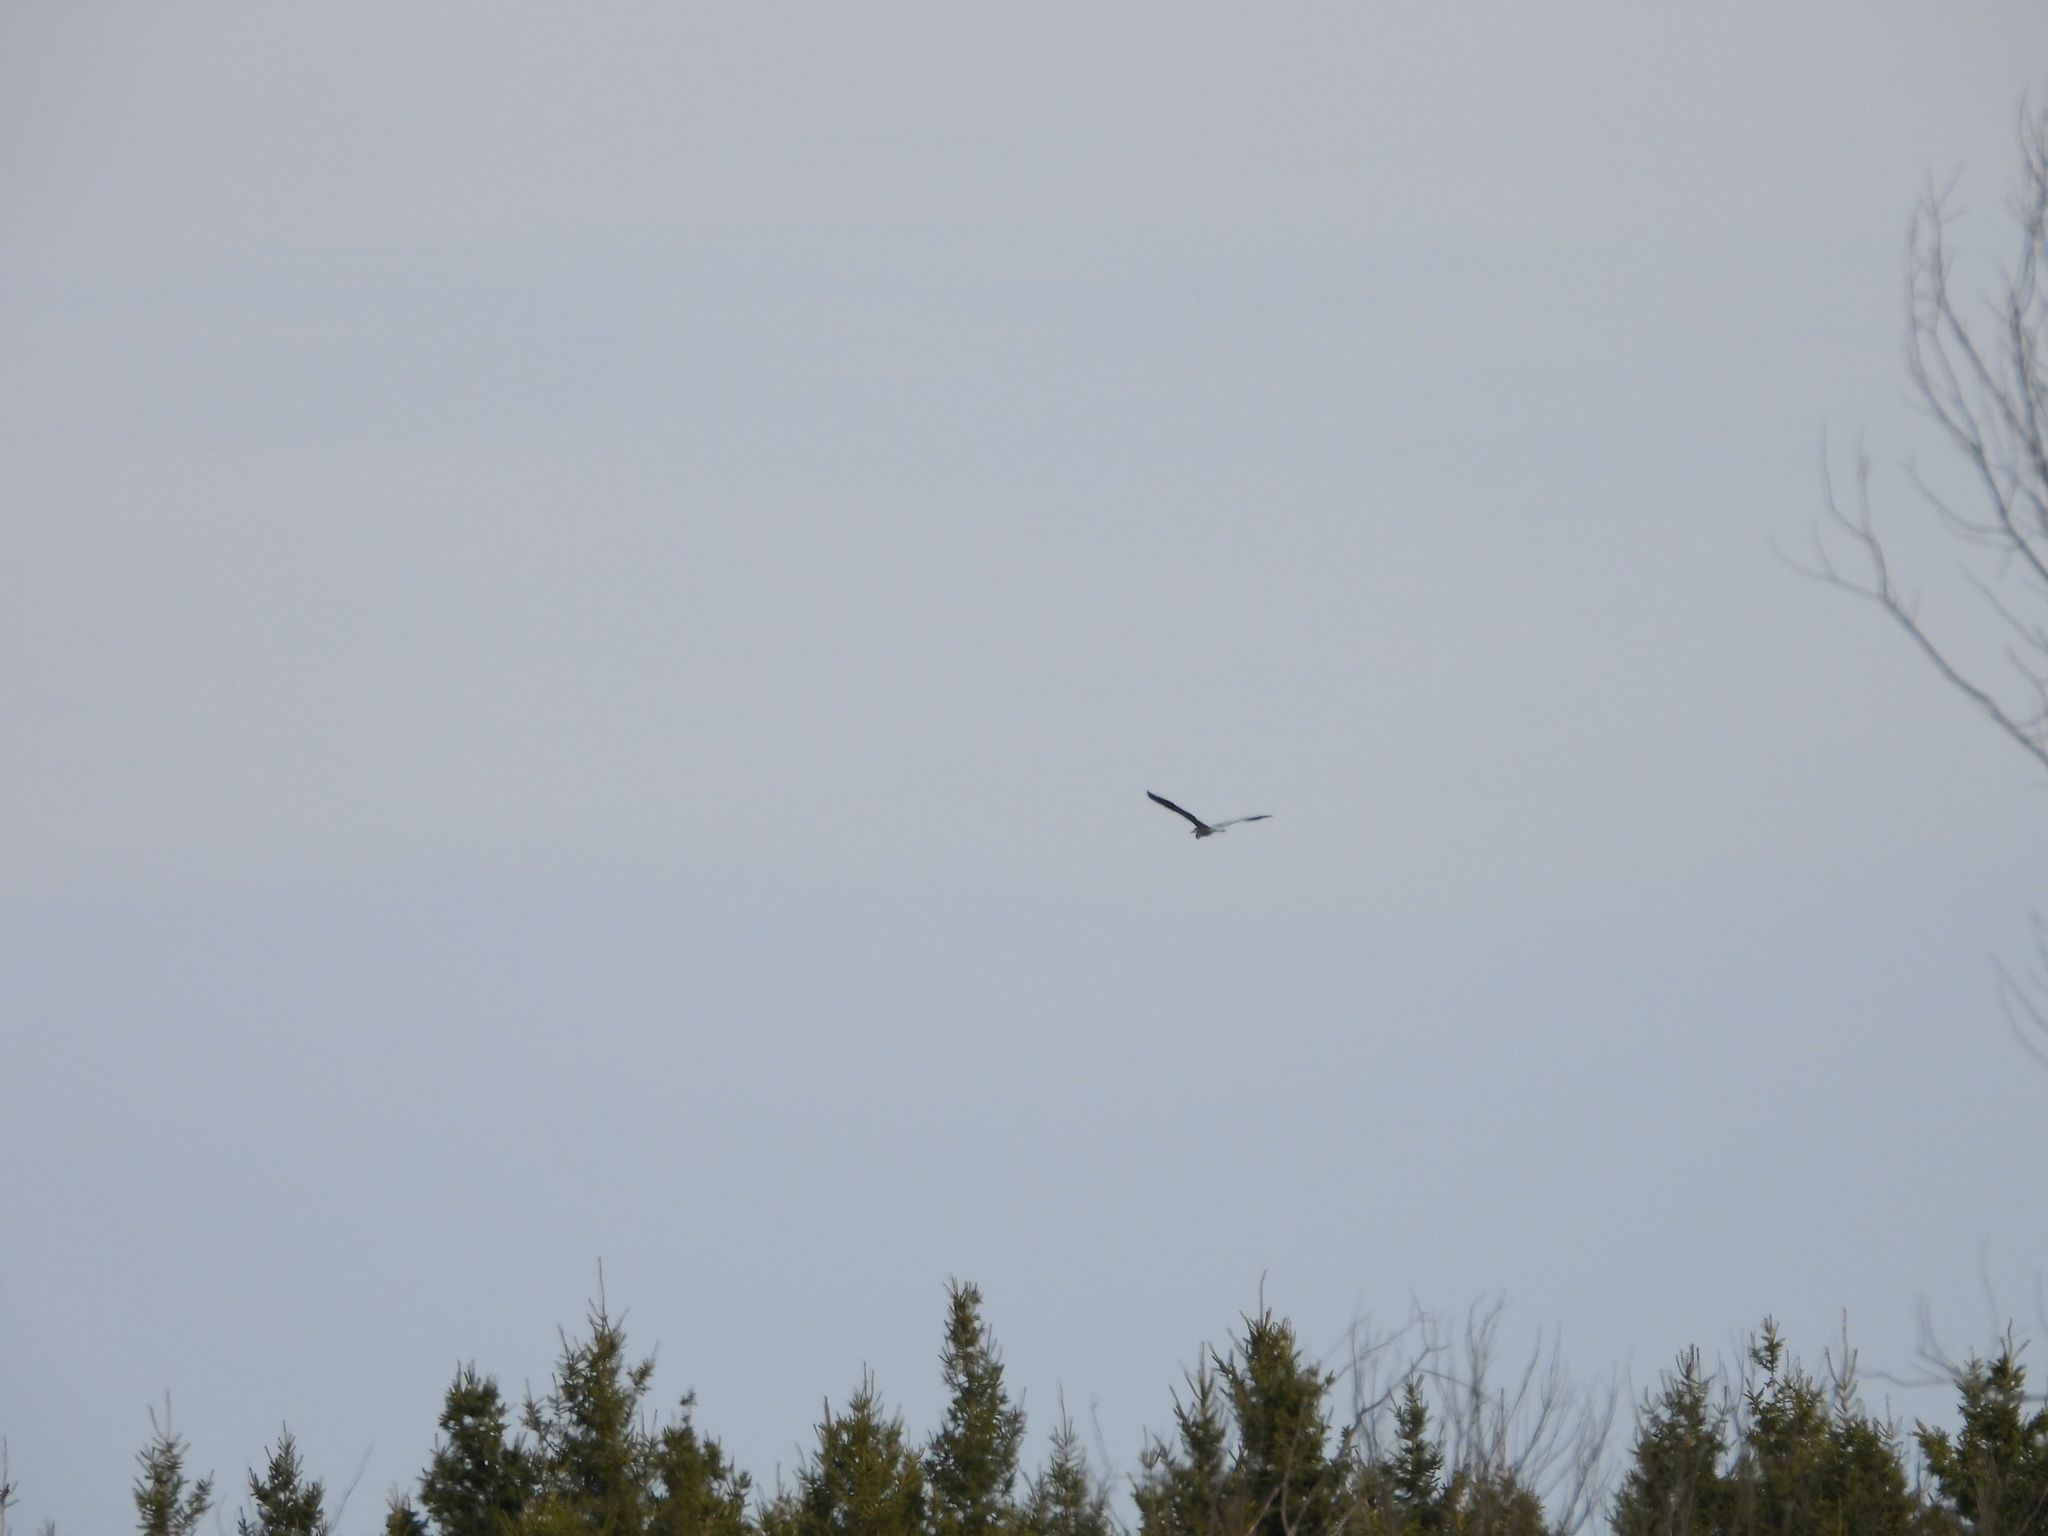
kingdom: Animalia
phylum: Chordata
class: Aves
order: Pelecaniformes
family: Ardeidae
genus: Ardea
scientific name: Ardea herodias
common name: Great blue heron
